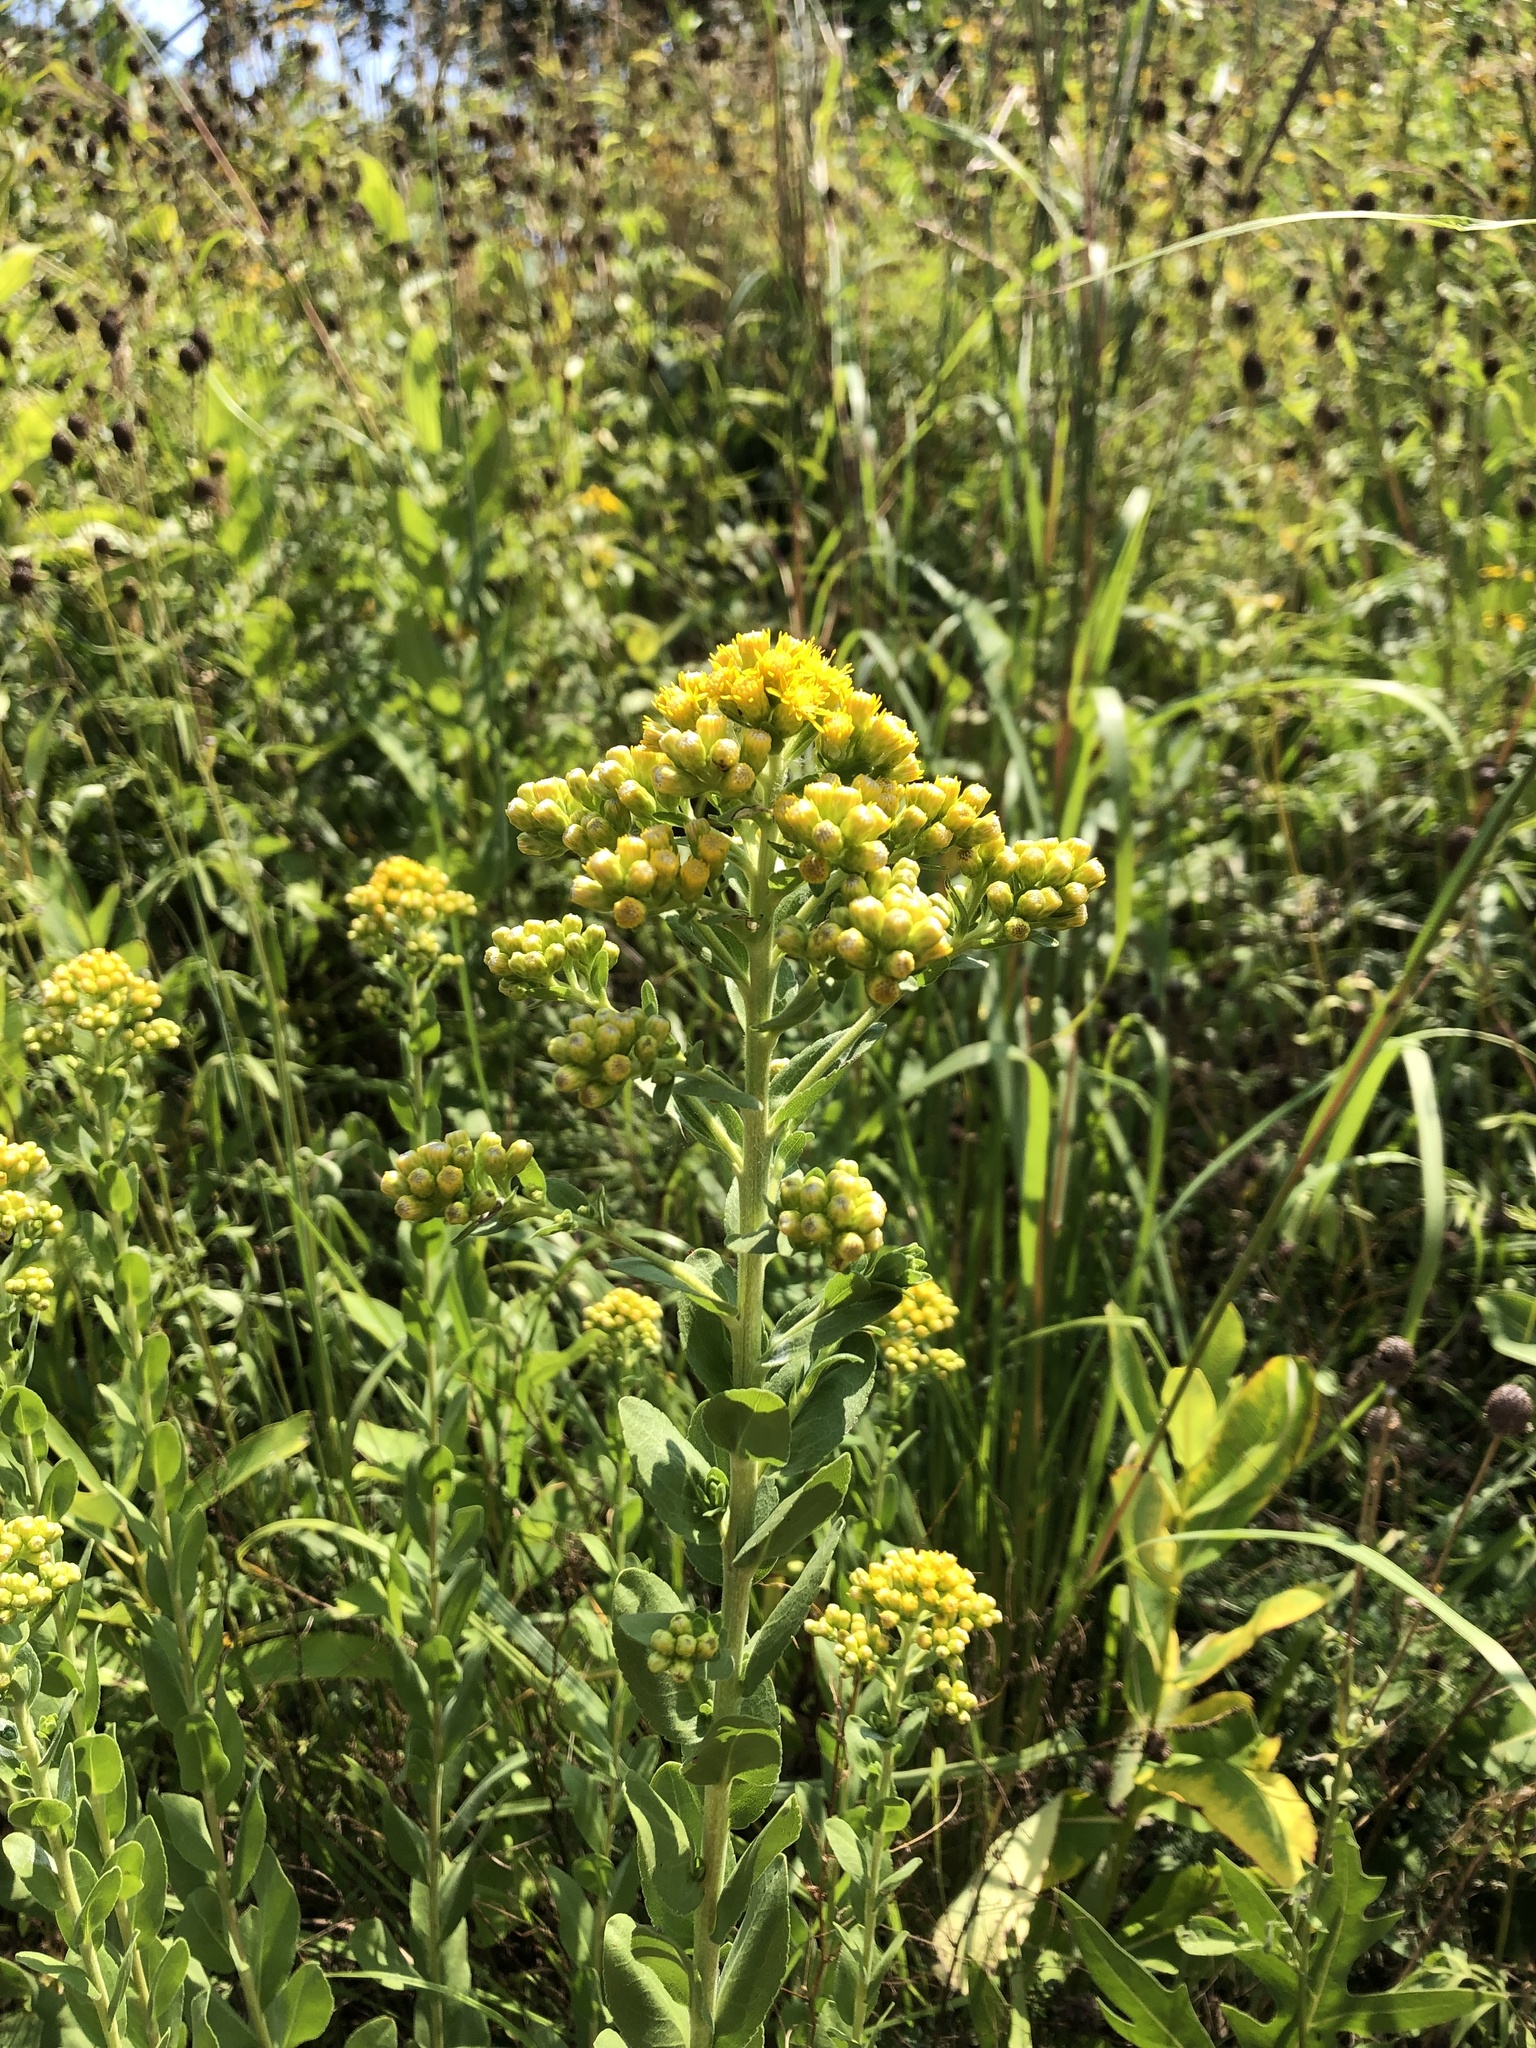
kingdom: Plantae
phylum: Tracheophyta
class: Magnoliopsida
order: Asterales
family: Asteraceae
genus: Solidago
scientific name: Solidago rigida
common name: Rigid goldenrod
